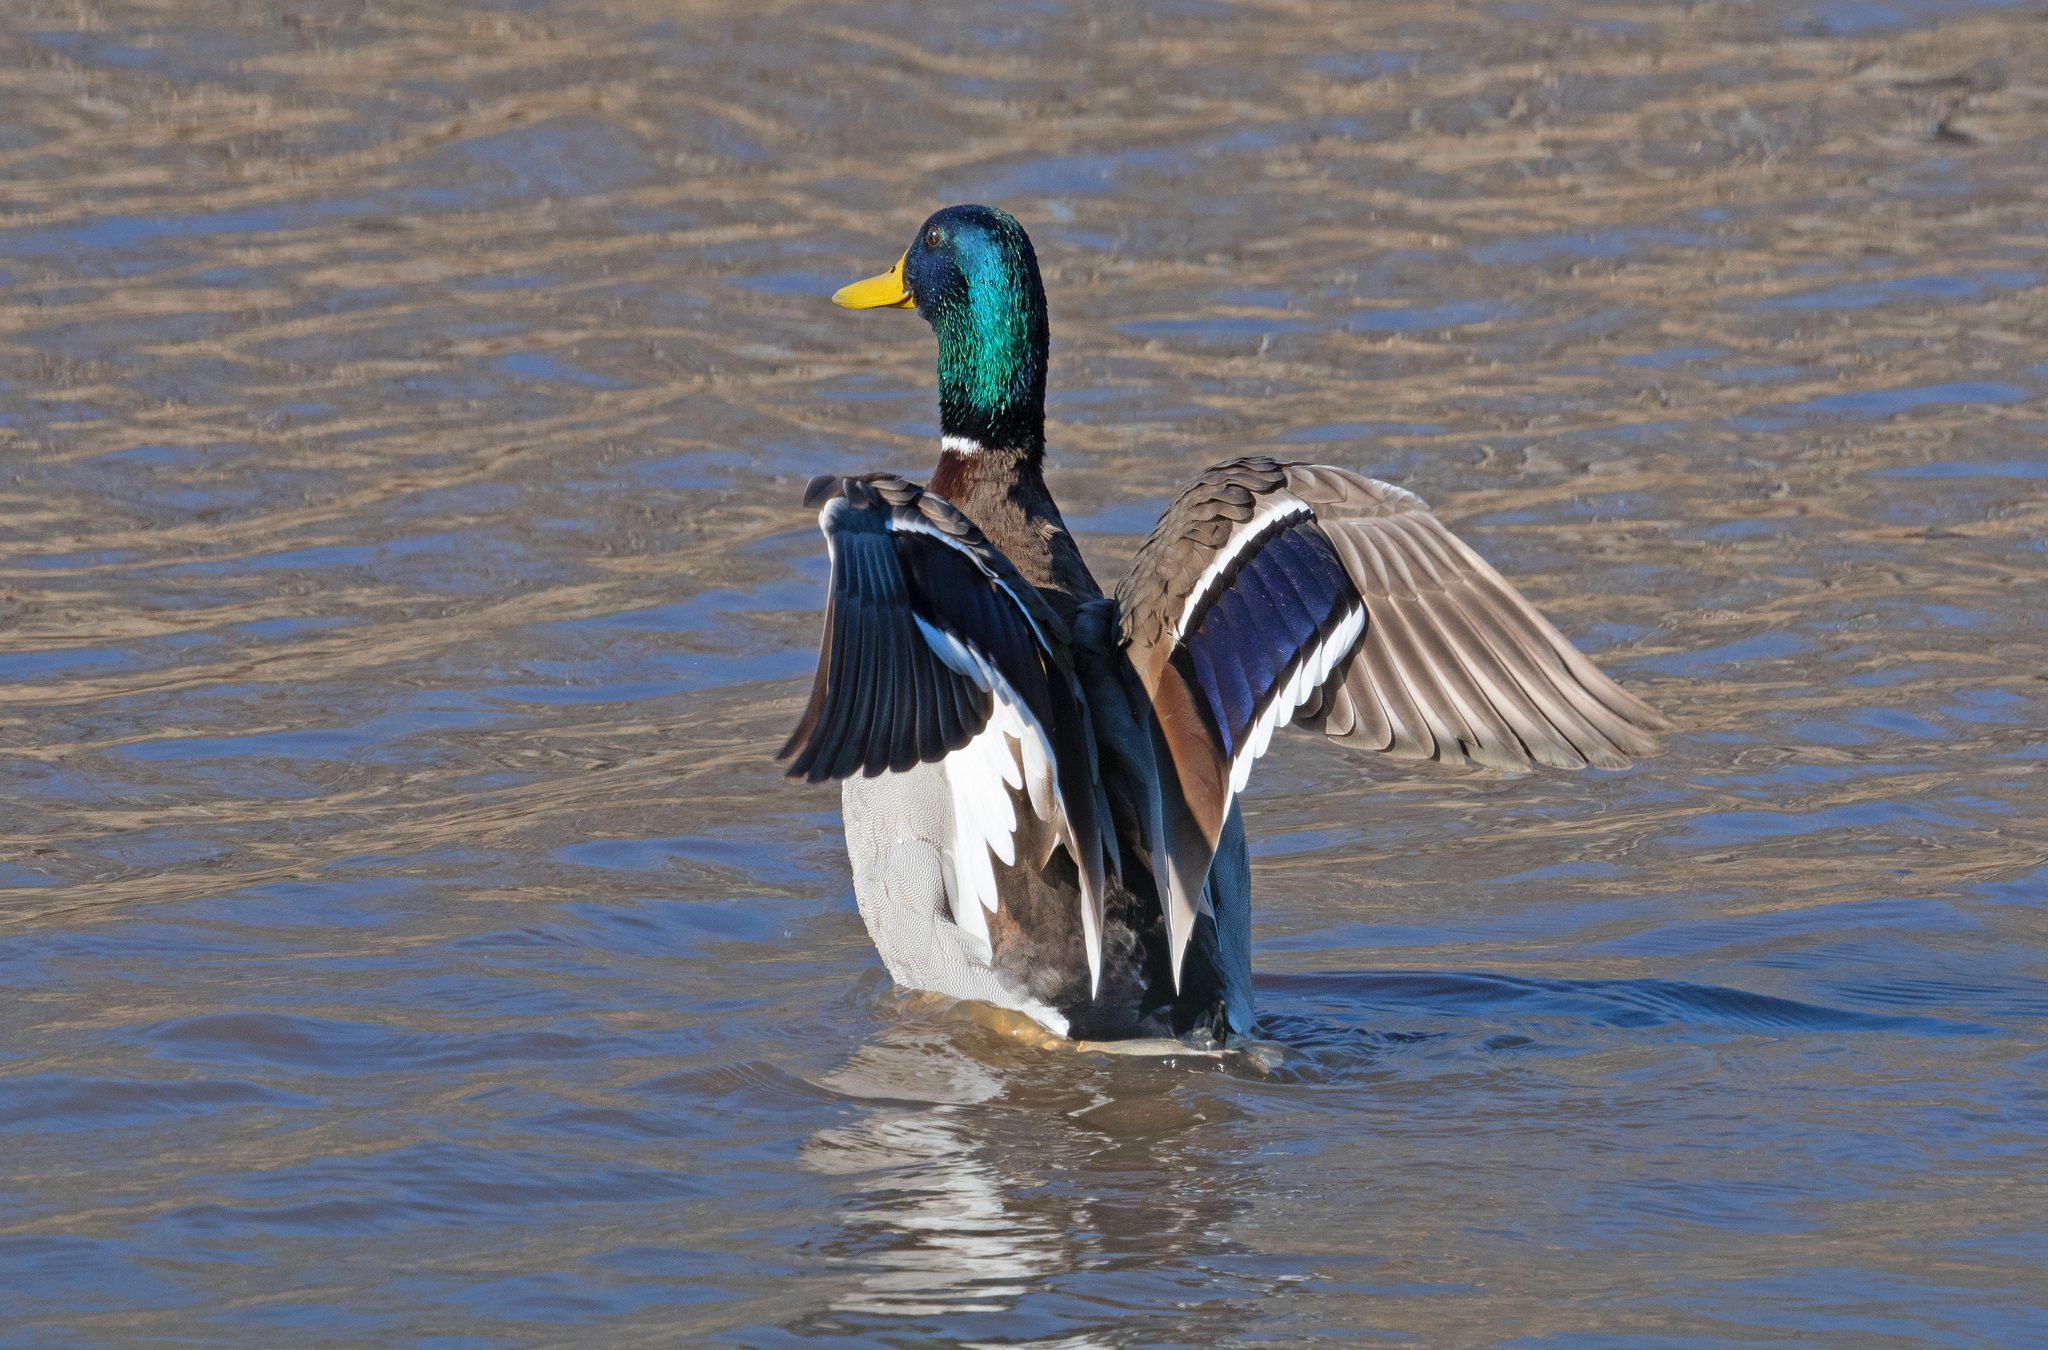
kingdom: Animalia
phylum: Chordata
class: Aves
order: Anseriformes
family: Anatidae
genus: Anas
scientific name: Anas platyrhynchos
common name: Mallard
